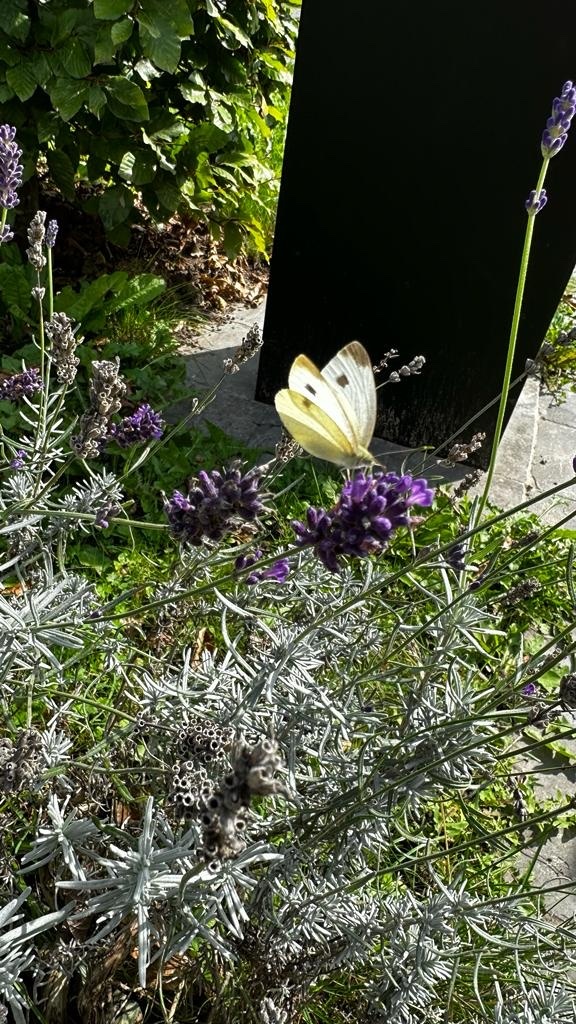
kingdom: Animalia
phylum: Arthropoda
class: Insecta
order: Lepidoptera
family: Pieridae
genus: Pieris
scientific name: Pieris mannii
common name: Southern small white
